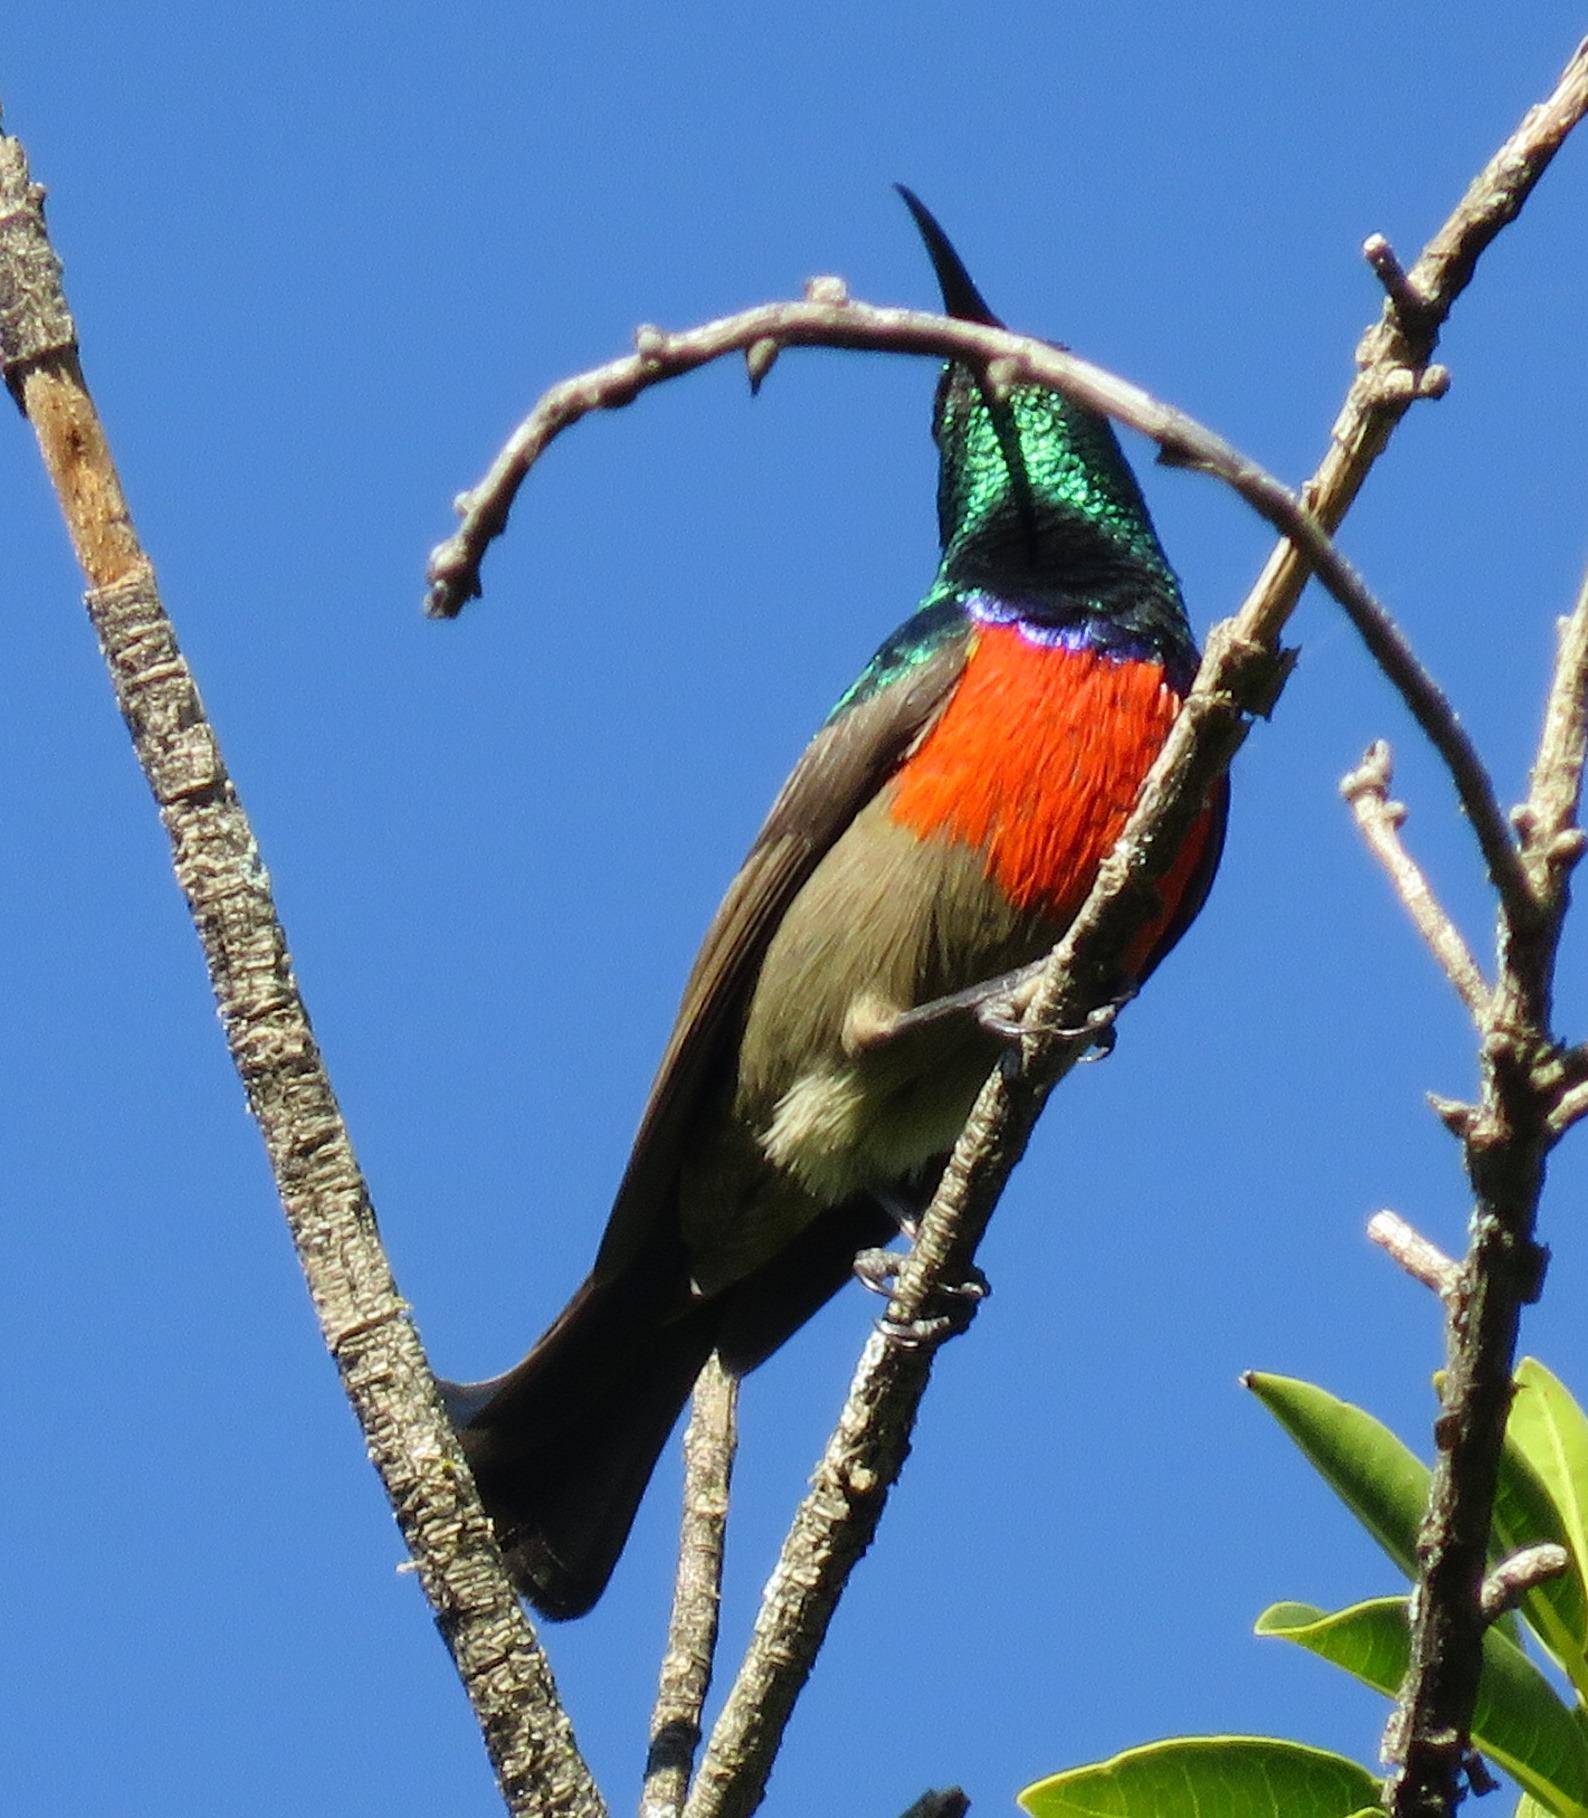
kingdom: Animalia
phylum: Chordata
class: Aves
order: Passeriformes
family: Nectariniidae
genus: Cinnyris
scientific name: Cinnyris afer
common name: Greater double-collared sunbird
